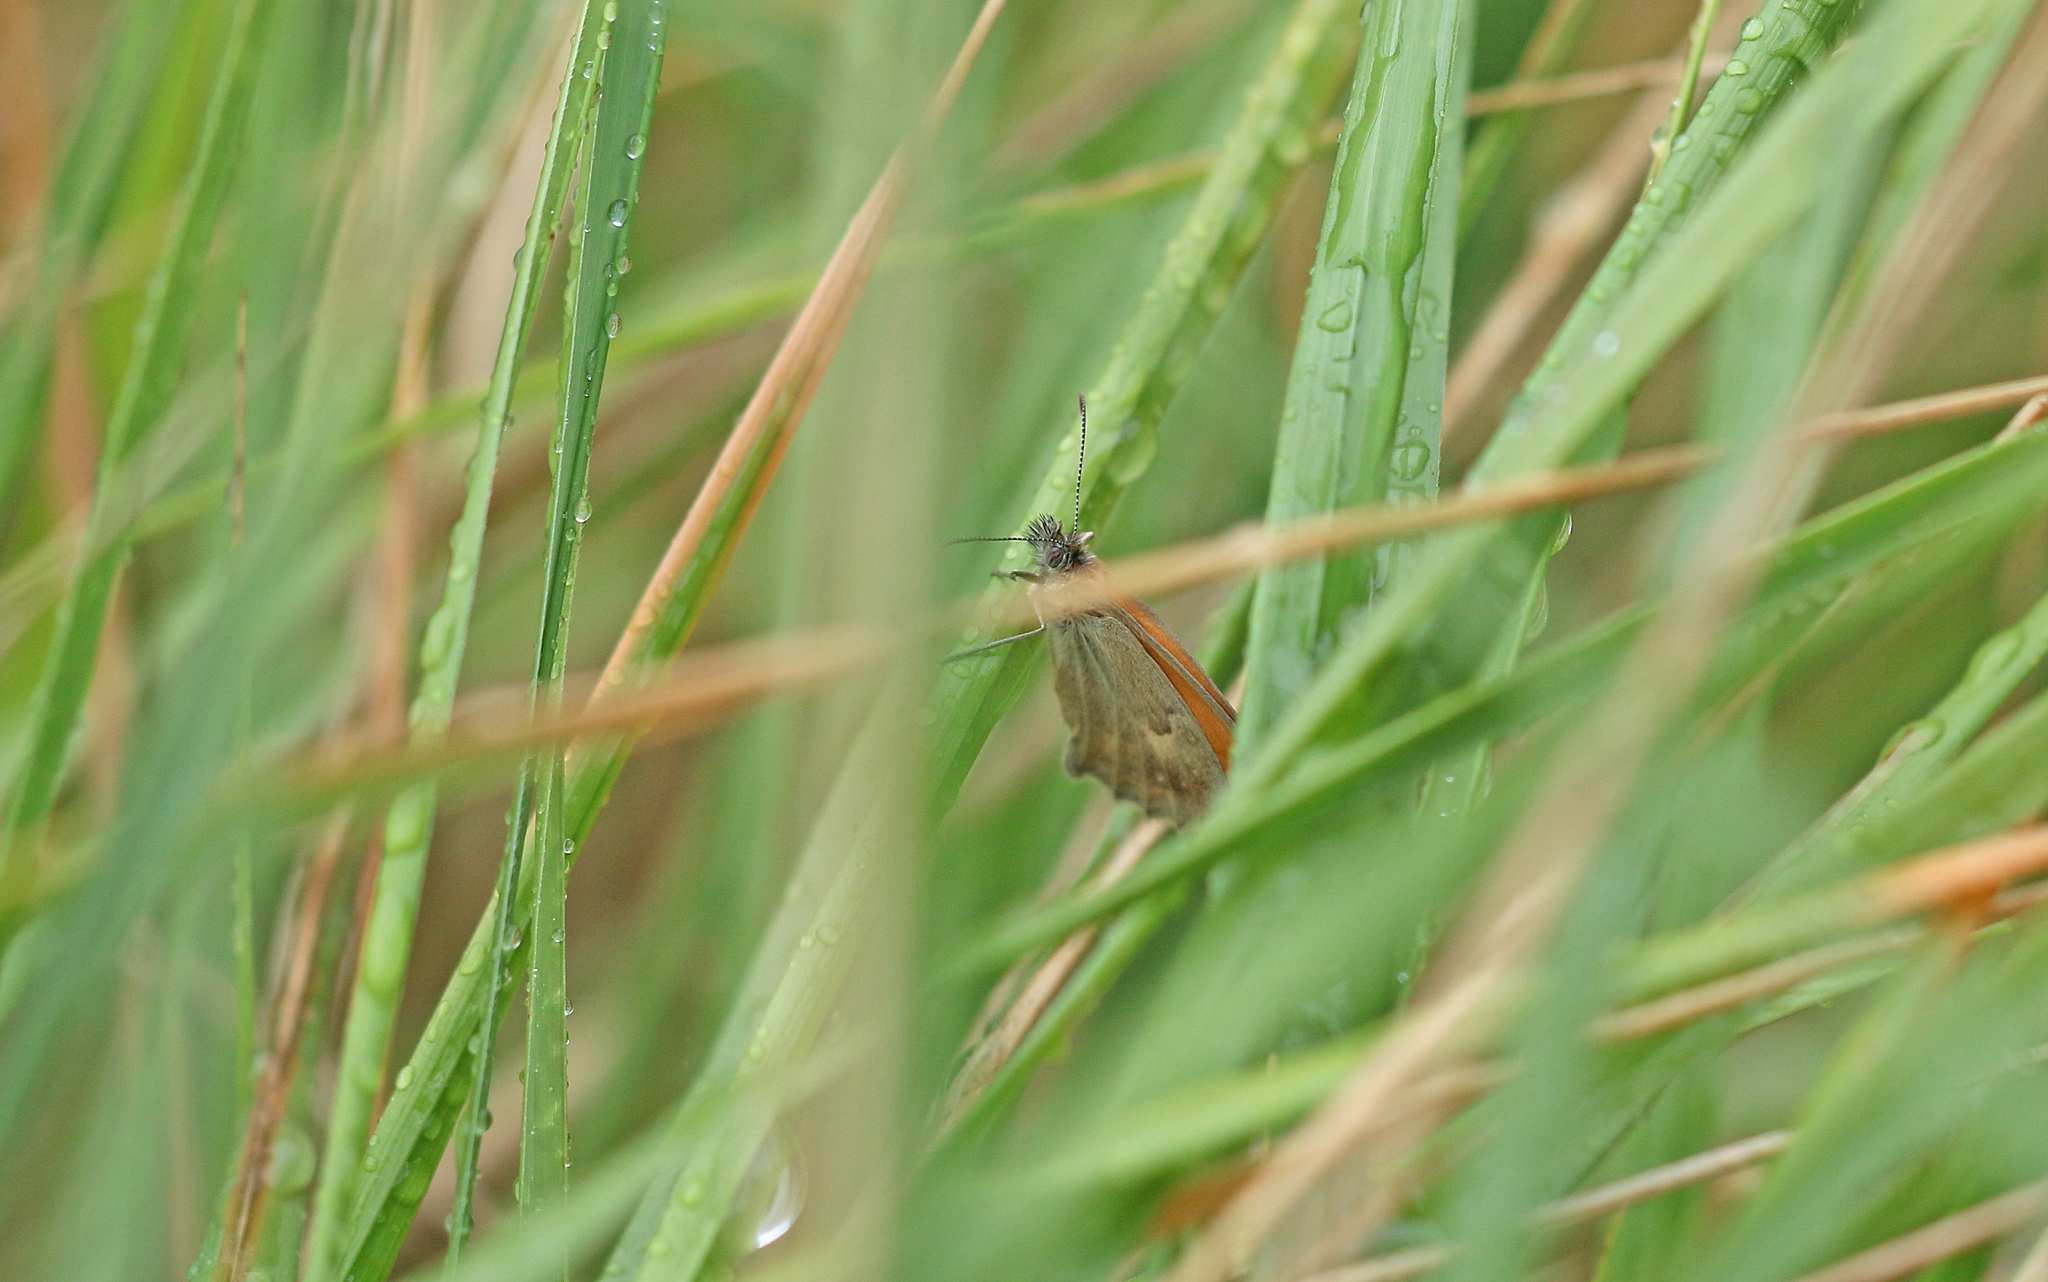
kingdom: Animalia
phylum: Arthropoda
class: Insecta
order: Lepidoptera
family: Nymphalidae
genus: Coenonympha
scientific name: Coenonympha pamphilus
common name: Small heath
